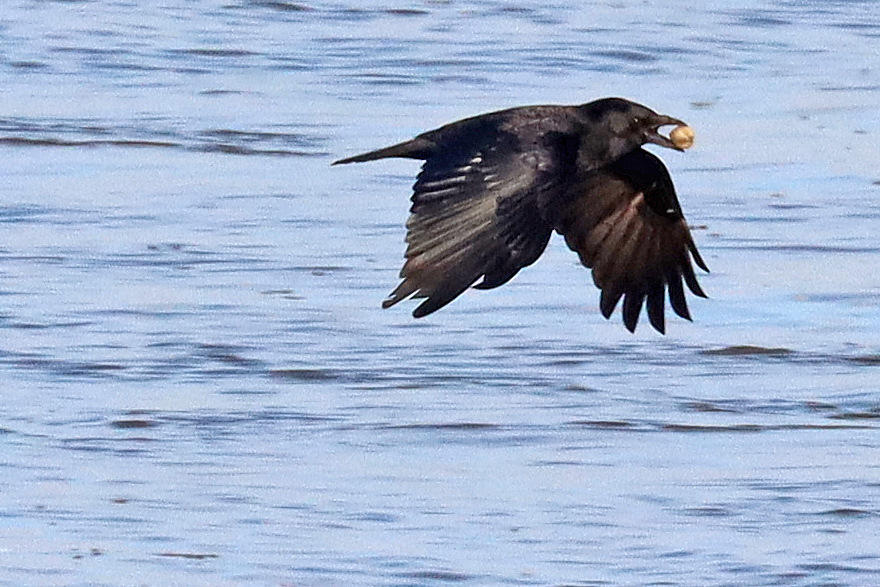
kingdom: Animalia
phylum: Chordata
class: Aves
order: Passeriformes
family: Corvidae
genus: Corvus
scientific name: Corvus corone
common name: Carrion crow
